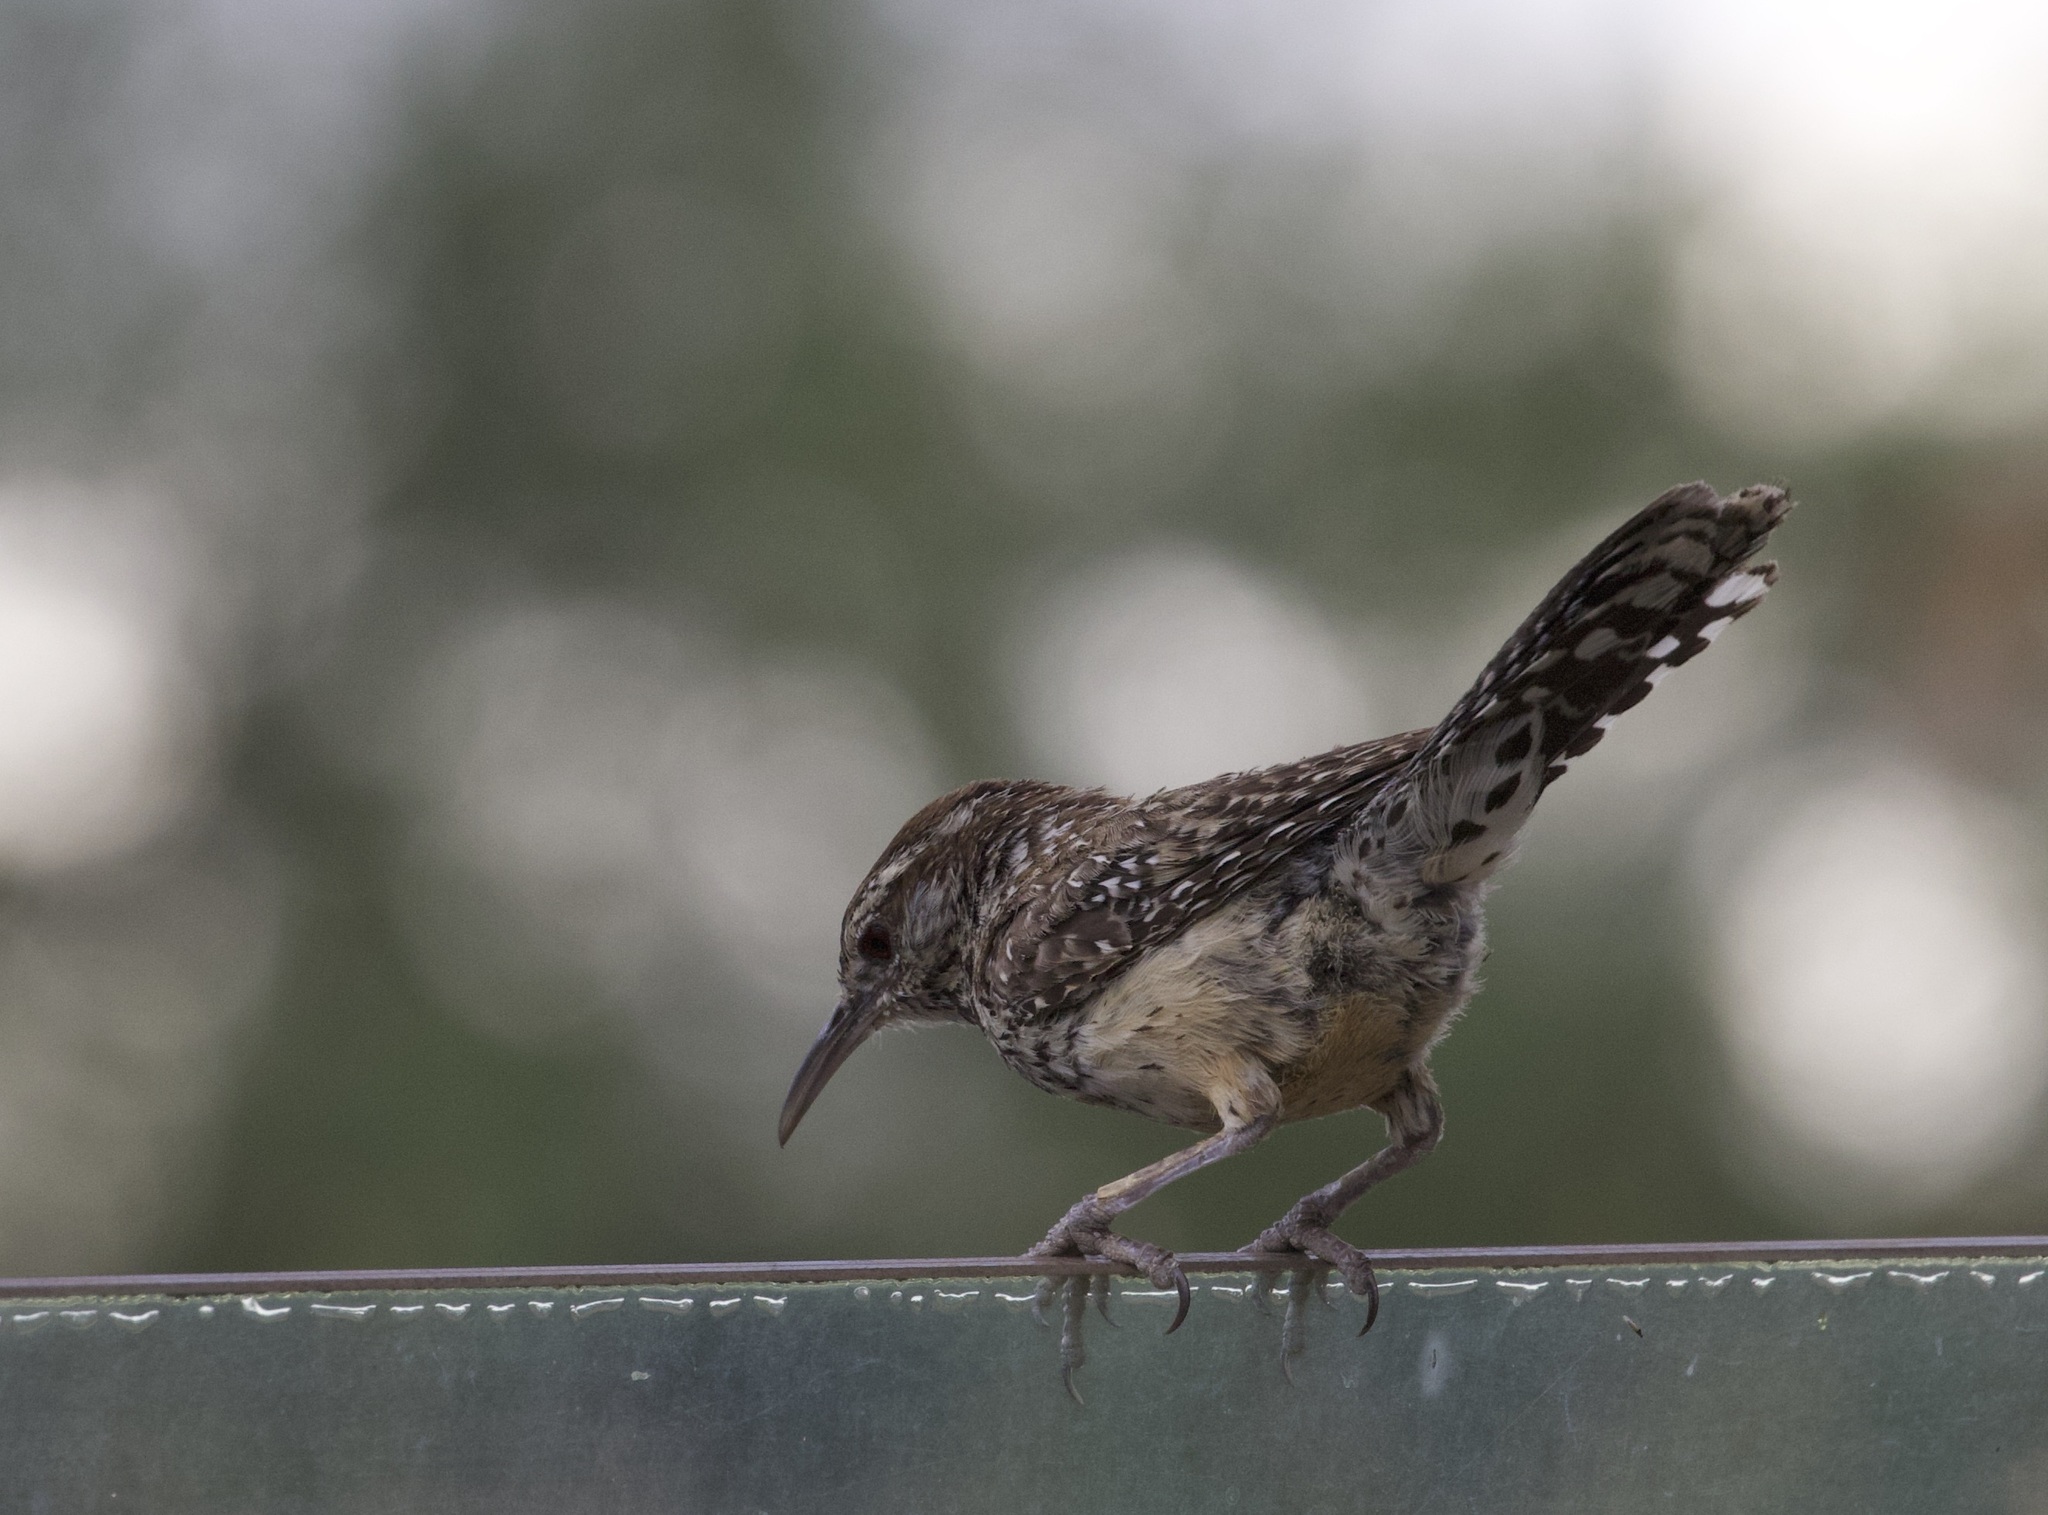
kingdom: Animalia
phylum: Chordata
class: Aves
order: Passeriformes
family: Troglodytidae
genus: Campylorhynchus
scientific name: Campylorhynchus brunneicapillus
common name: Cactus wren
